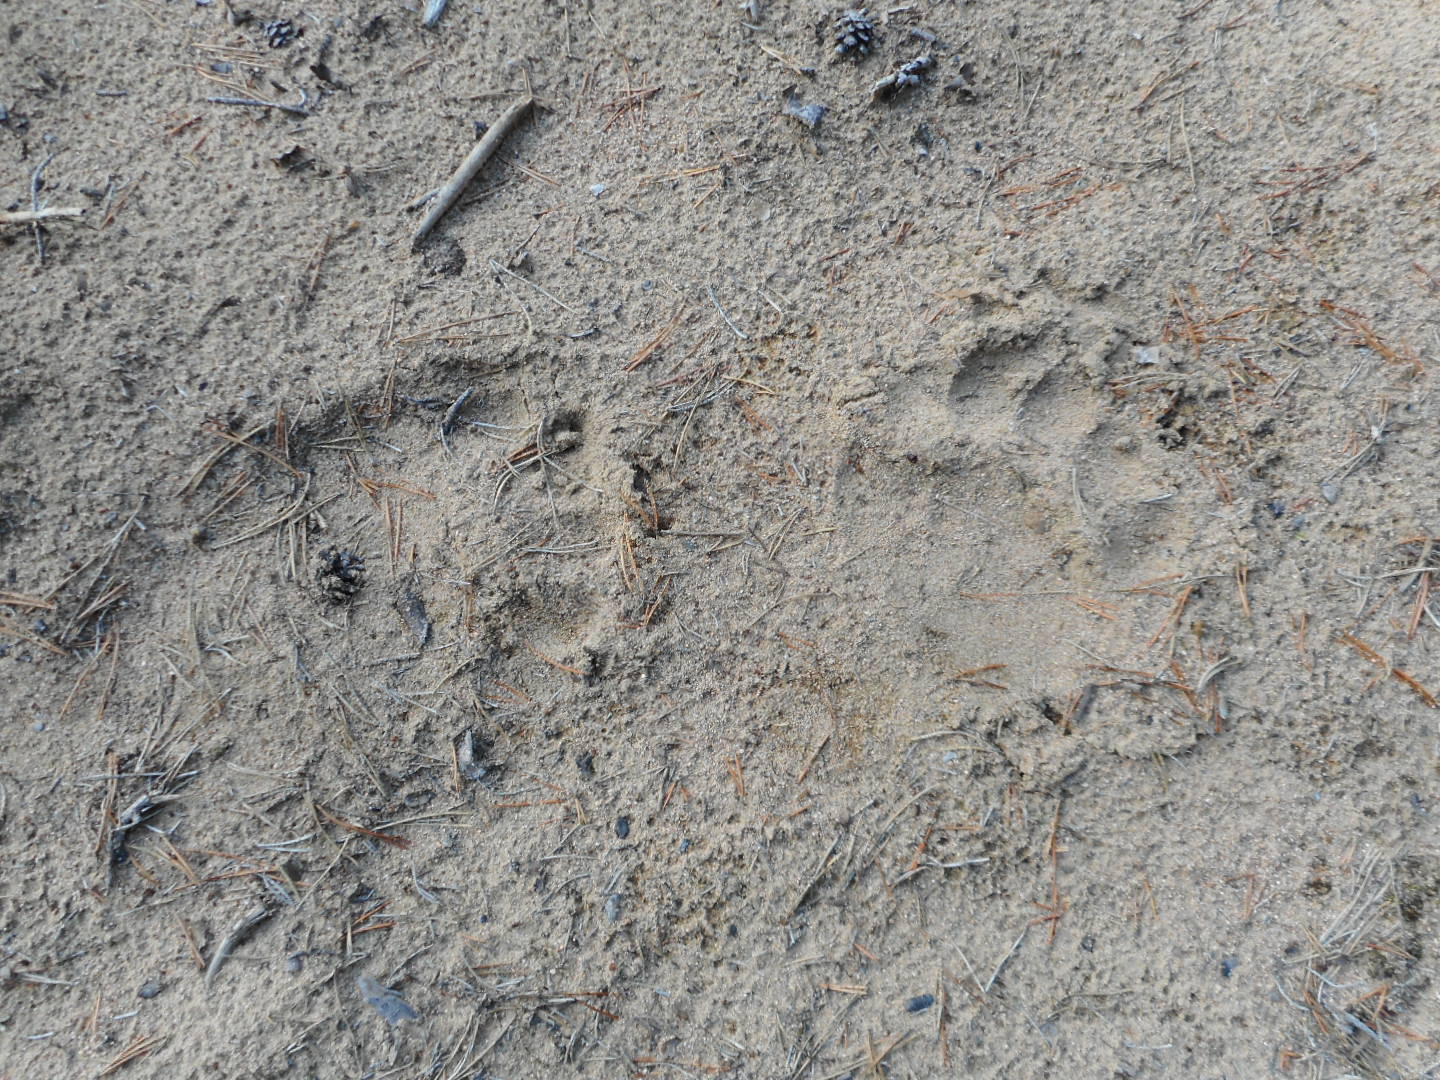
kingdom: Animalia
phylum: Chordata
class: Mammalia
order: Carnivora
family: Ursidae
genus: Ursus
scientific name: Ursus arctos
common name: Brown bear
